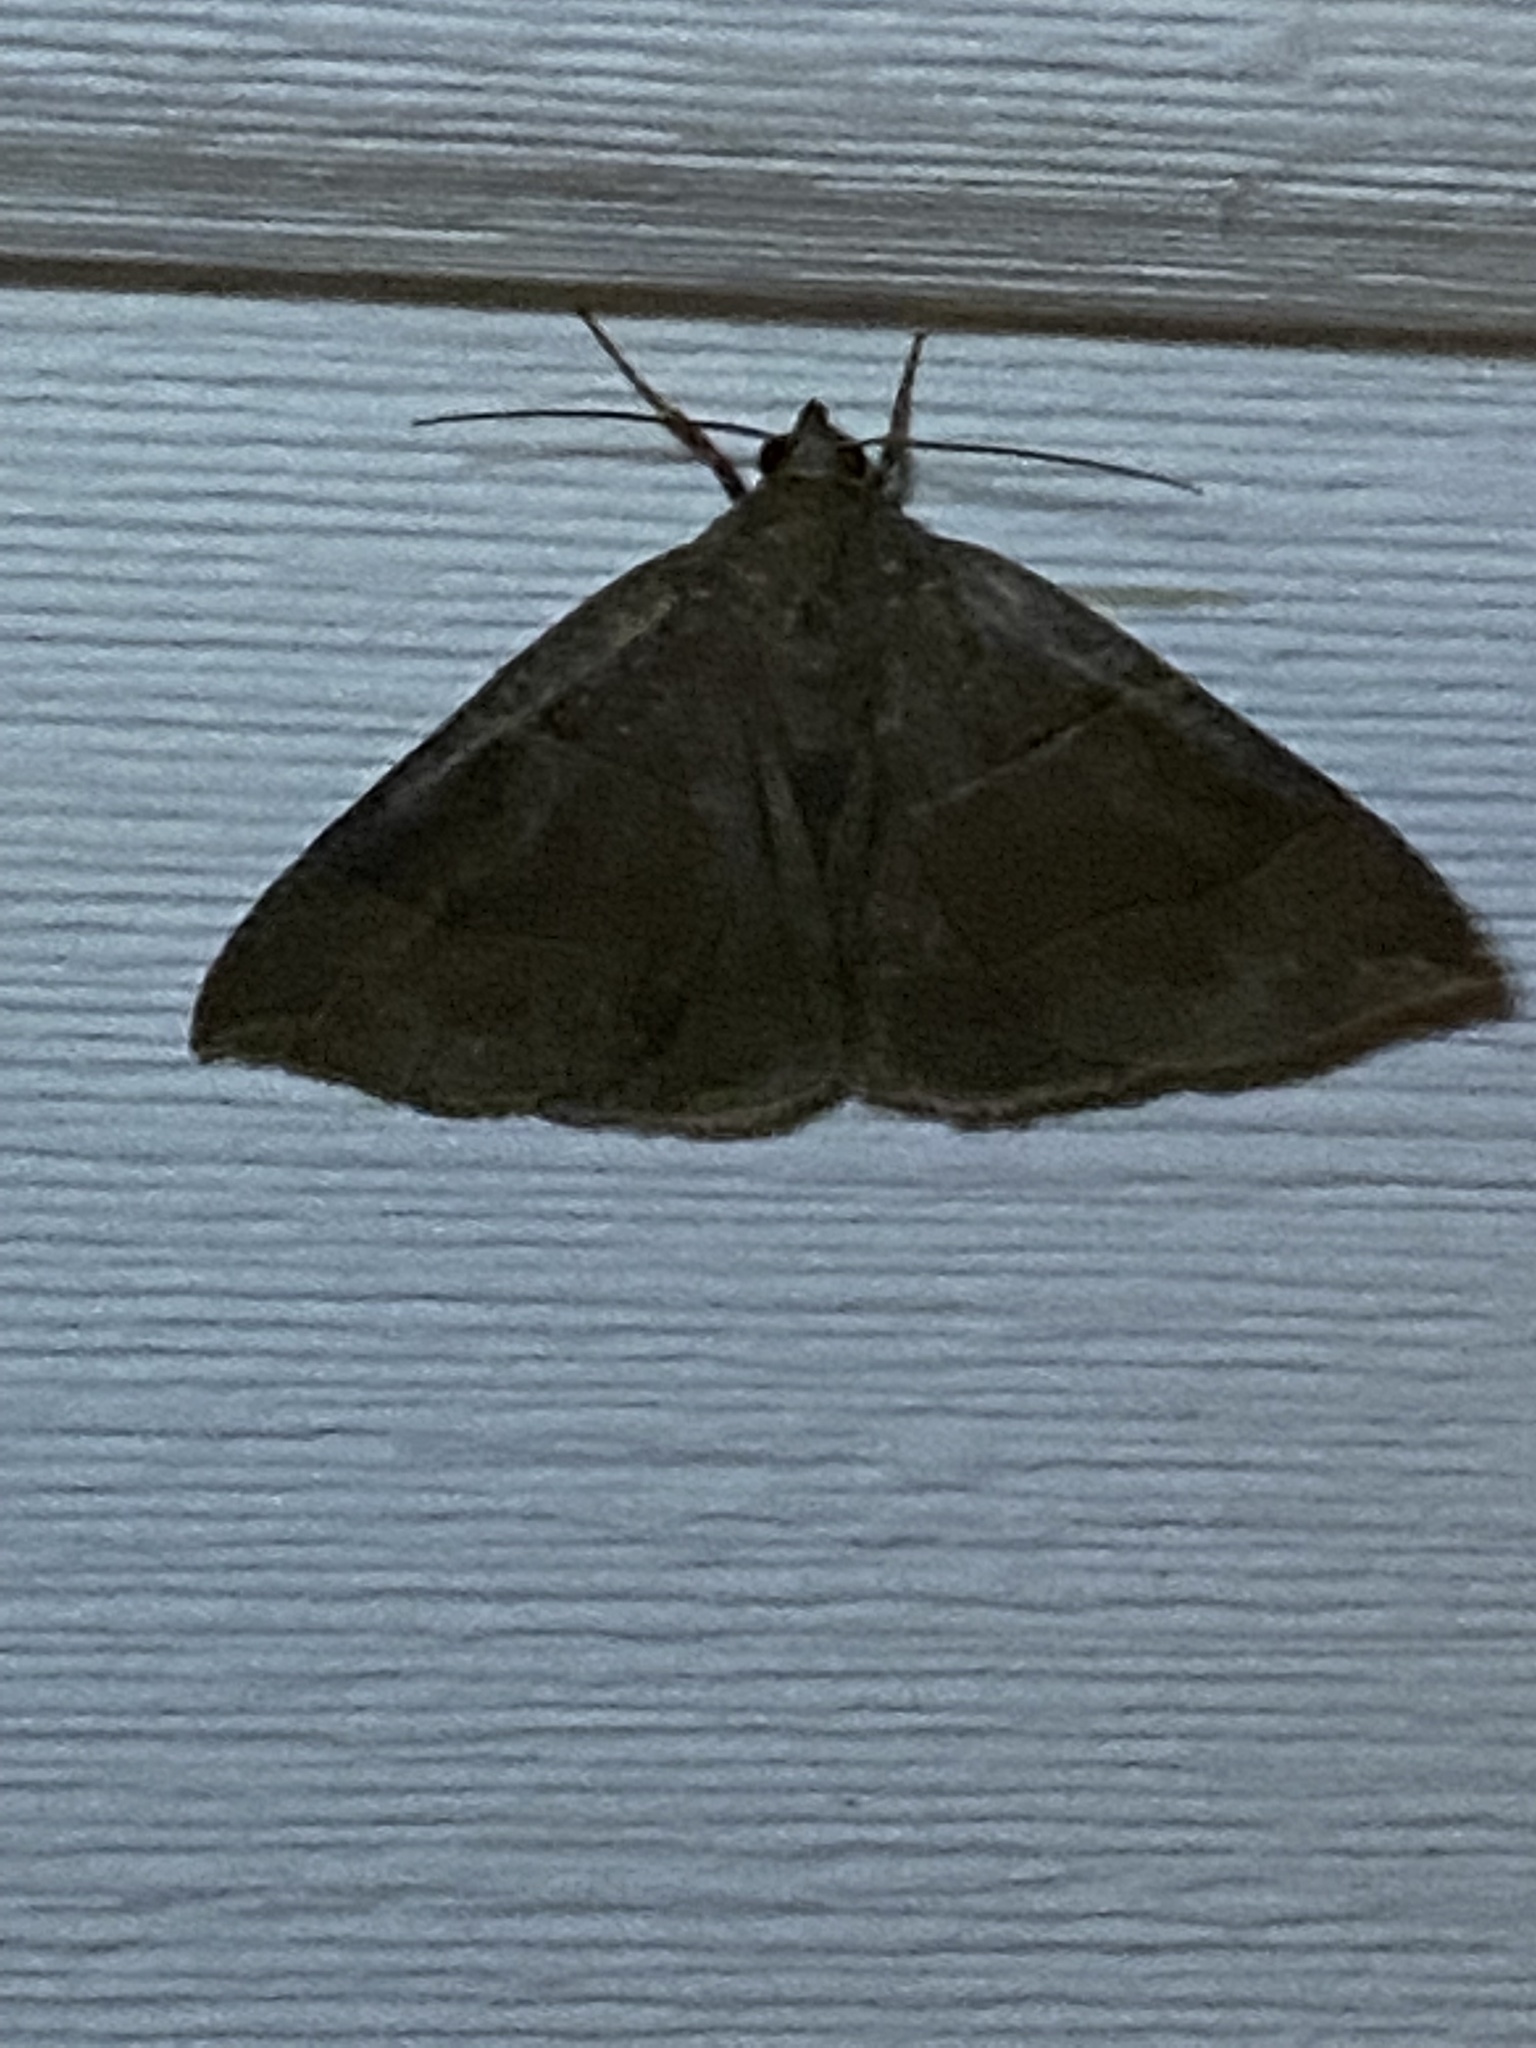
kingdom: Animalia
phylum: Arthropoda
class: Insecta
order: Lepidoptera
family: Erebidae
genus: Parallelia
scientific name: Parallelia bistriaris
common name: Maple looper moth
